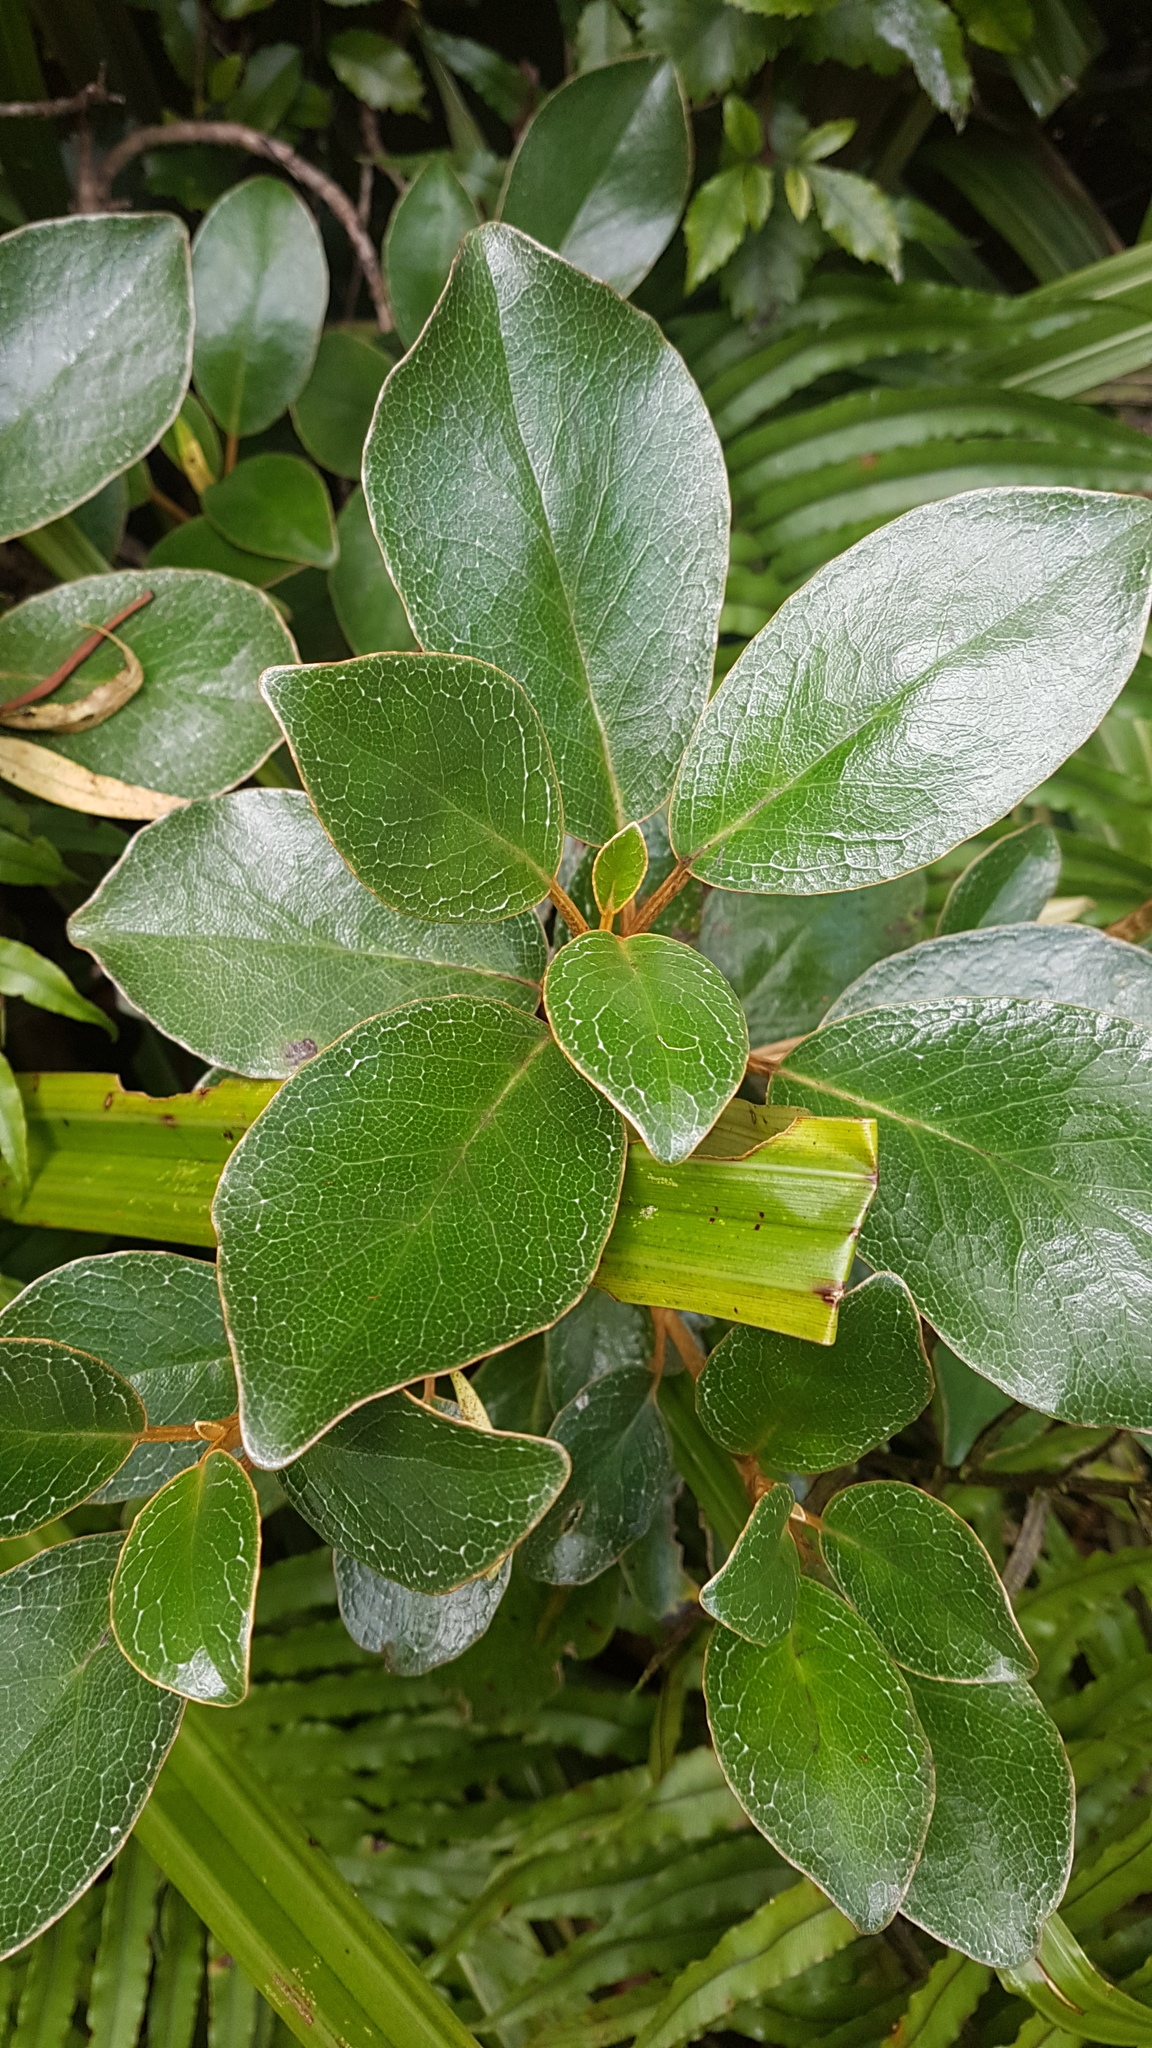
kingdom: Plantae
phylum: Tracheophyta
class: Magnoliopsida
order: Asterales
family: Asteraceae
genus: Brachyglottis
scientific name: Brachyglottis elaeagnifolia
